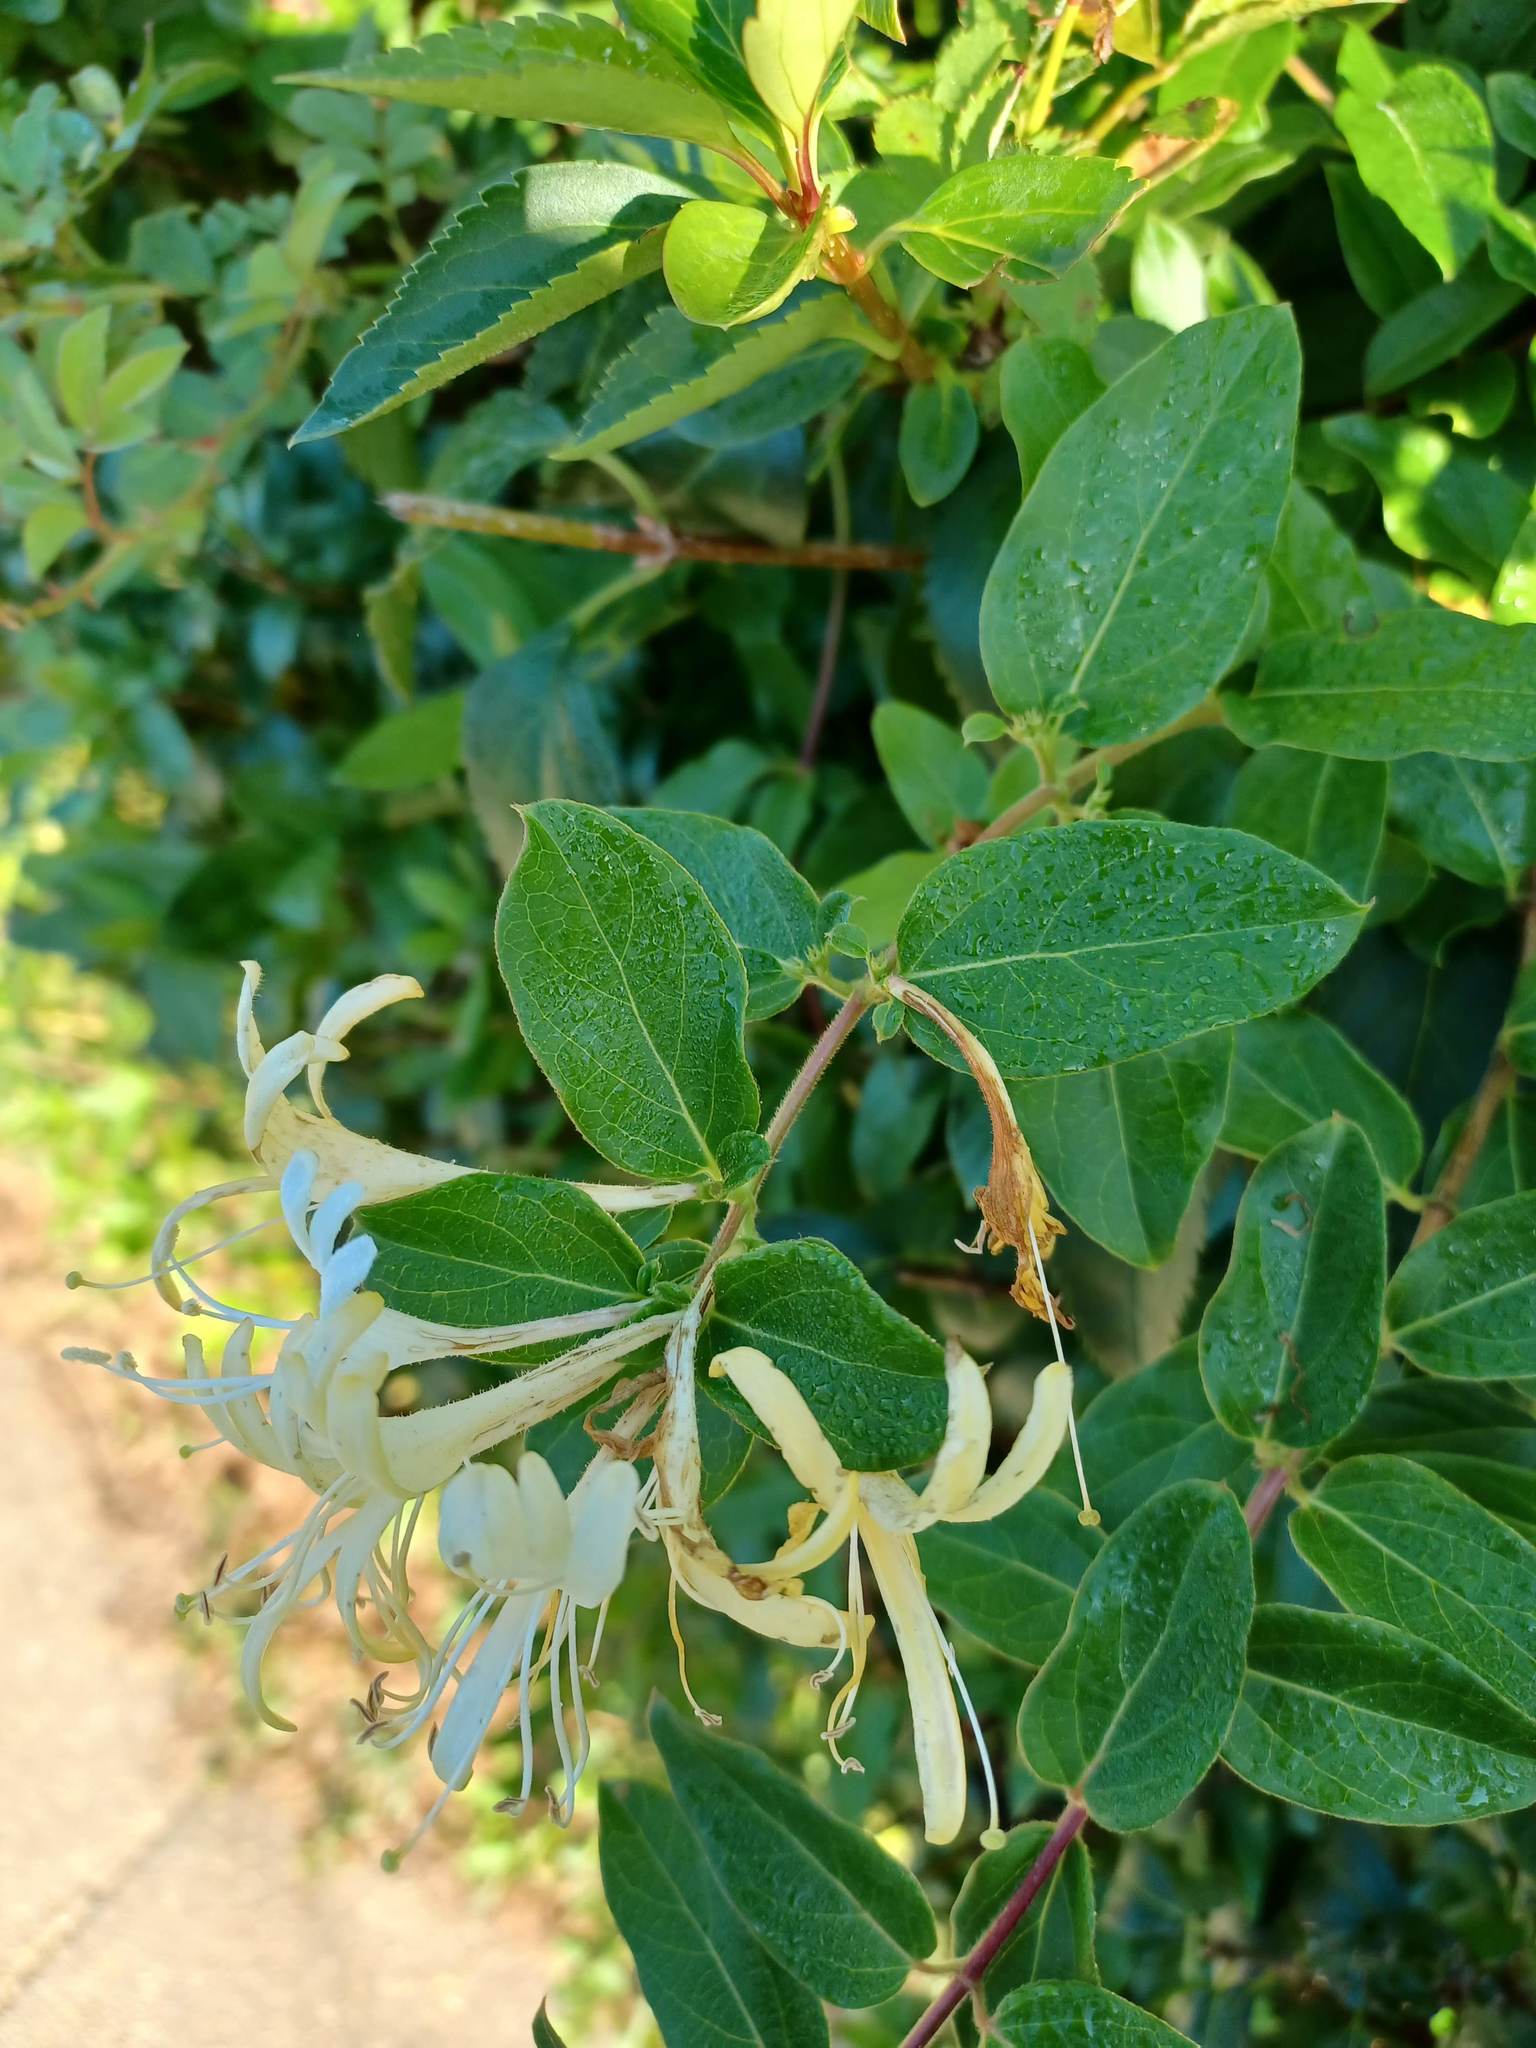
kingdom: Plantae
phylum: Tracheophyta
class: Magnoliopsida
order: Dipsacales
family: Caprifoliaceae
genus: Lonicera
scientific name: Lonicera japonica
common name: Japanese honeysuckle
